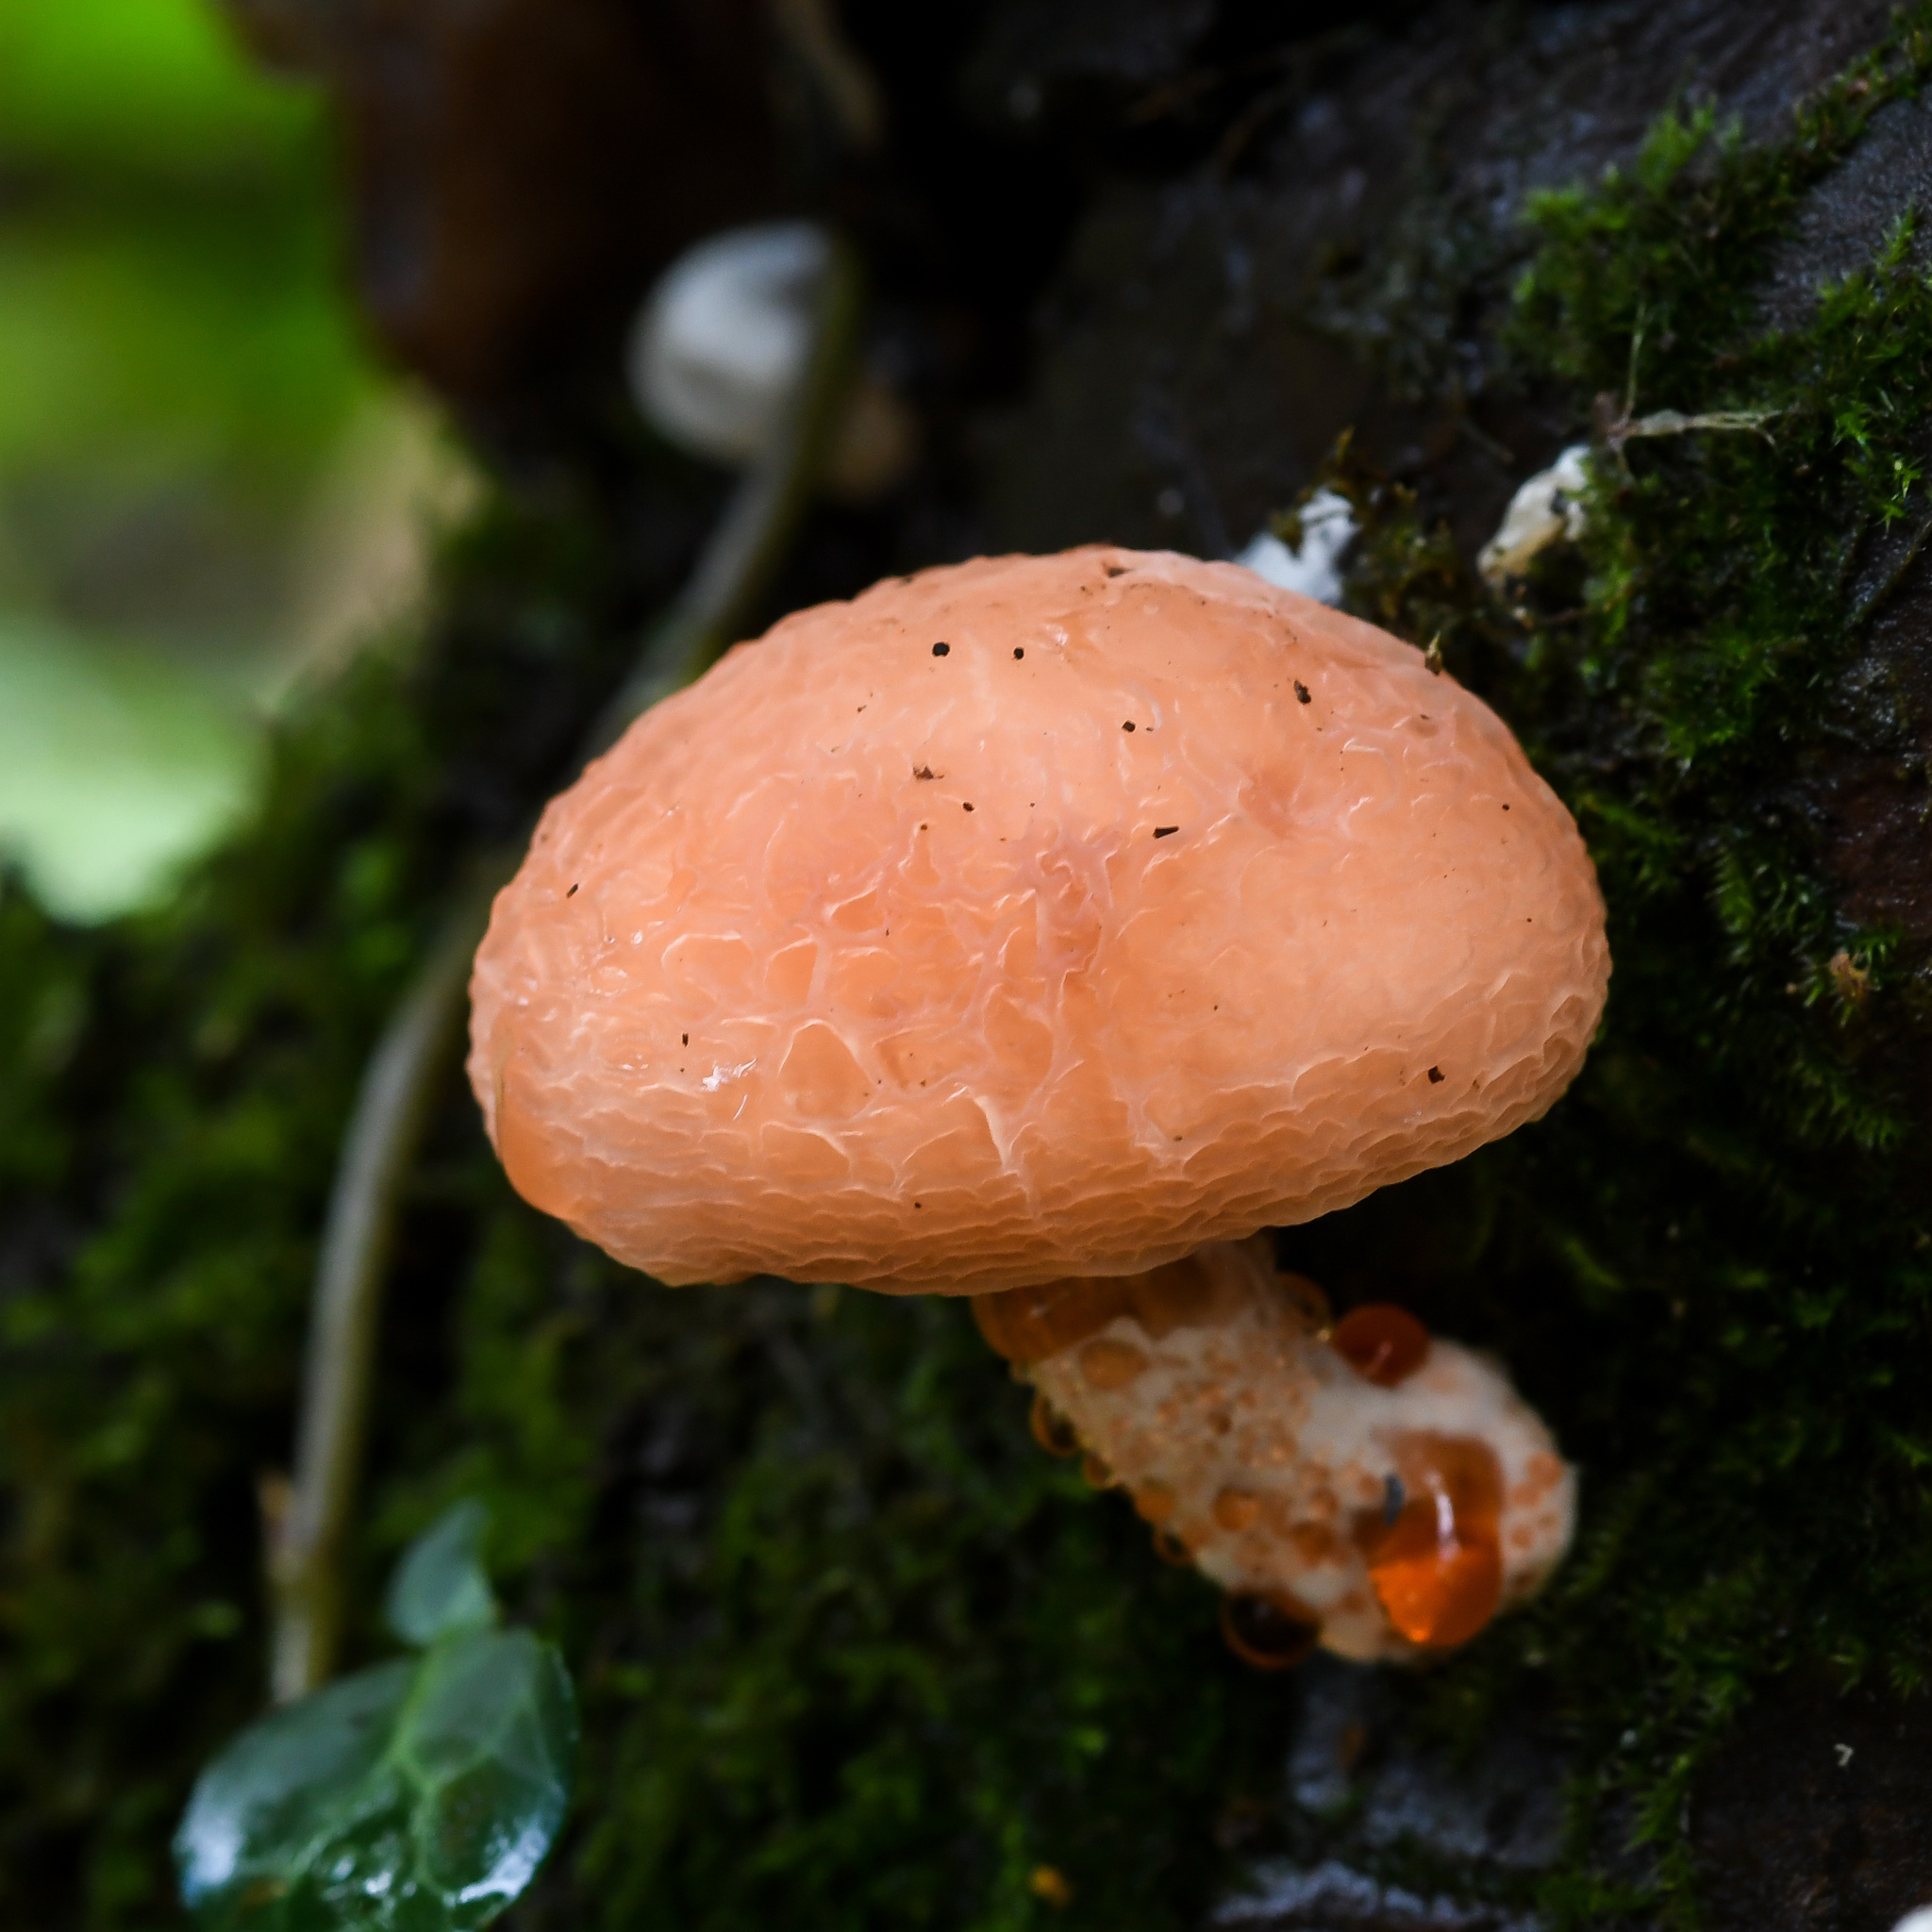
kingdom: Fungi
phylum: Basidiomycota
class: Agaricomycetes
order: Agaricales
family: Physalacriaceae
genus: Rhodotus
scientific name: Rhodotus palmatus
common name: Wrinkled peach
